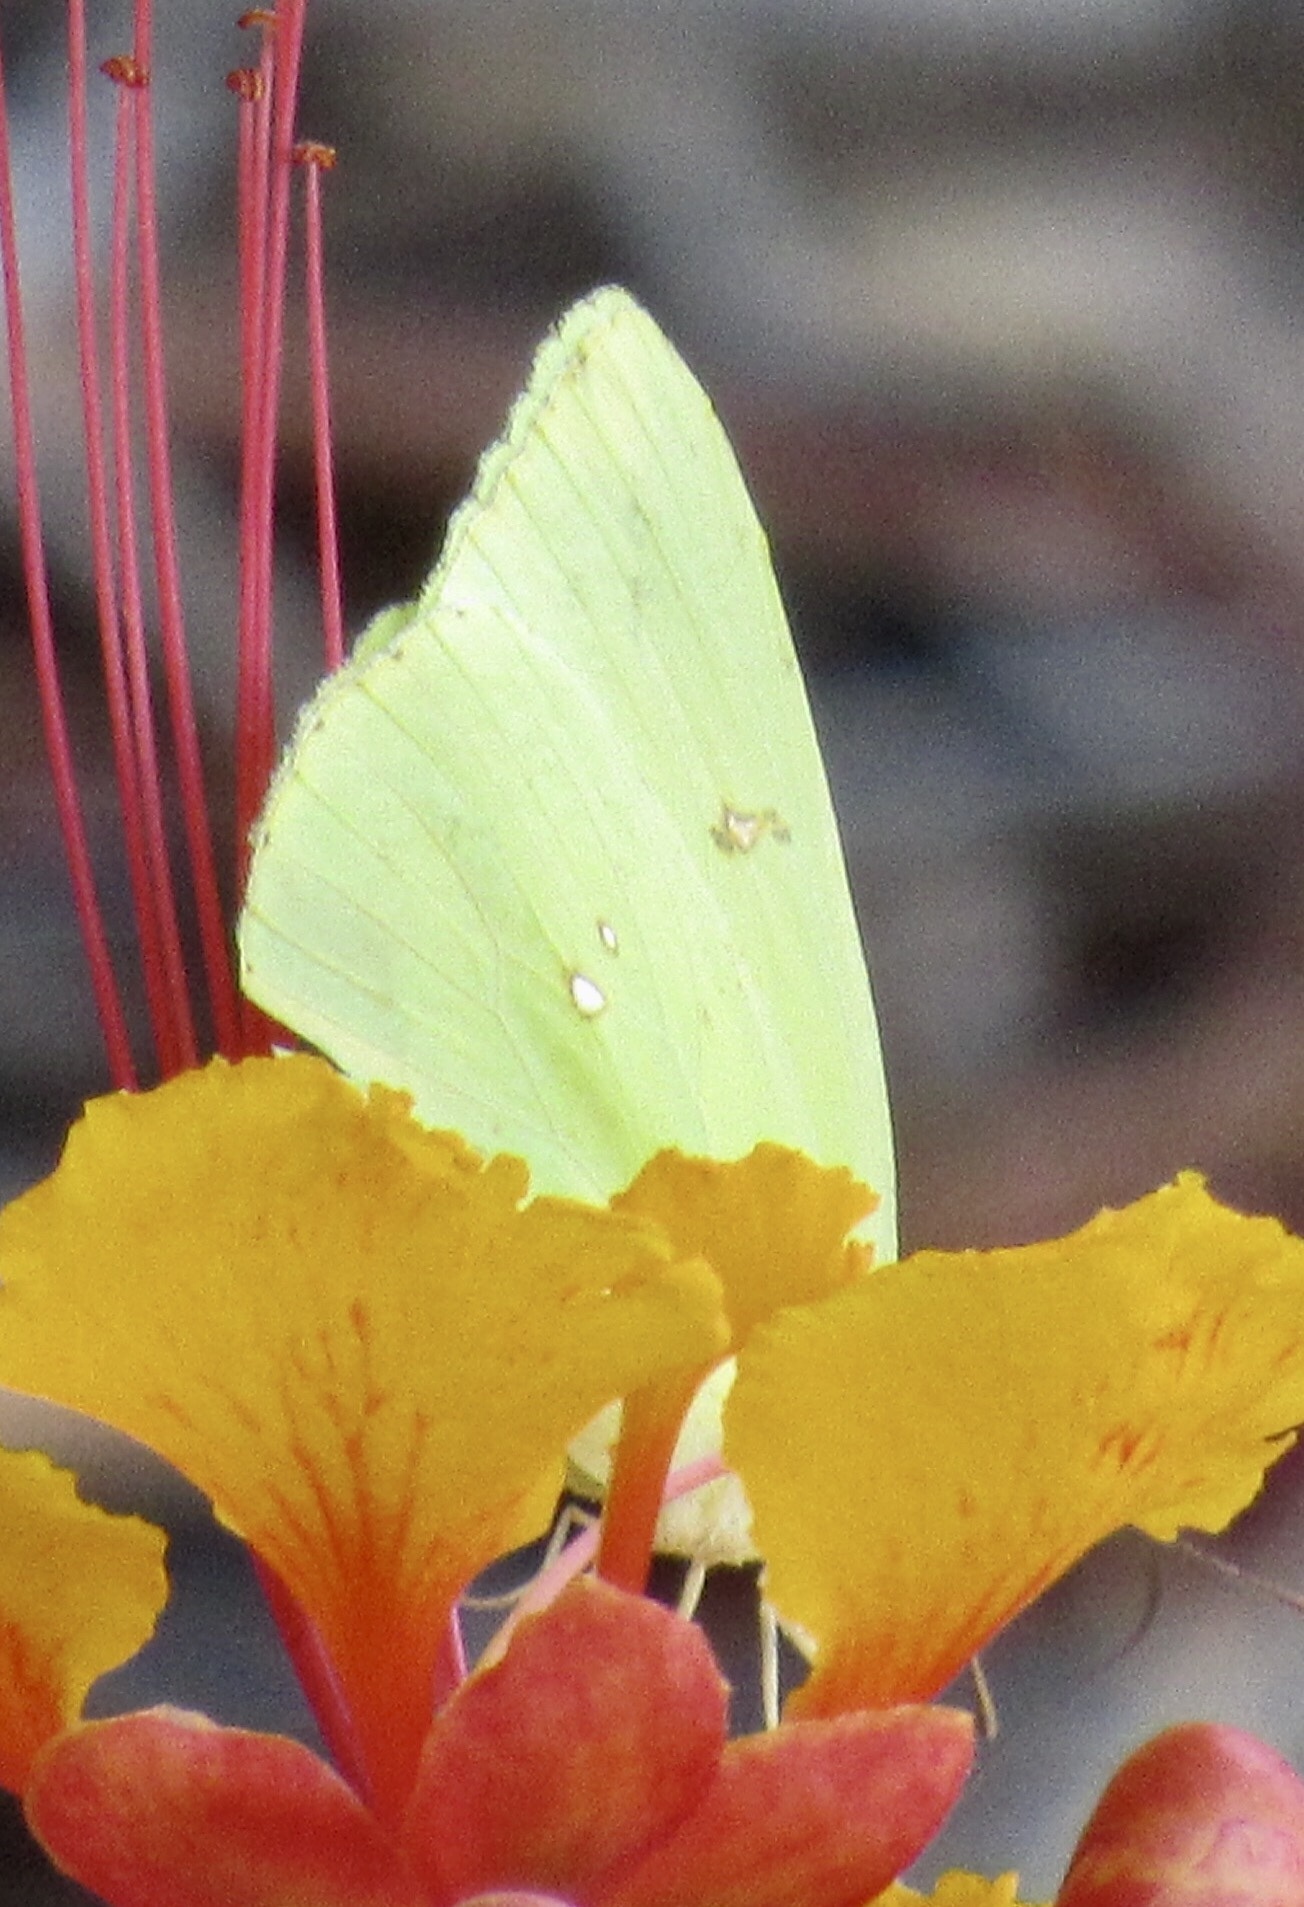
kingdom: Animalia
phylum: Arthropoda
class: Insecta
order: Lepidoptera
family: Pieridae
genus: Phoebis
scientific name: Phoebis sennae
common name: Cloudless sulphur
